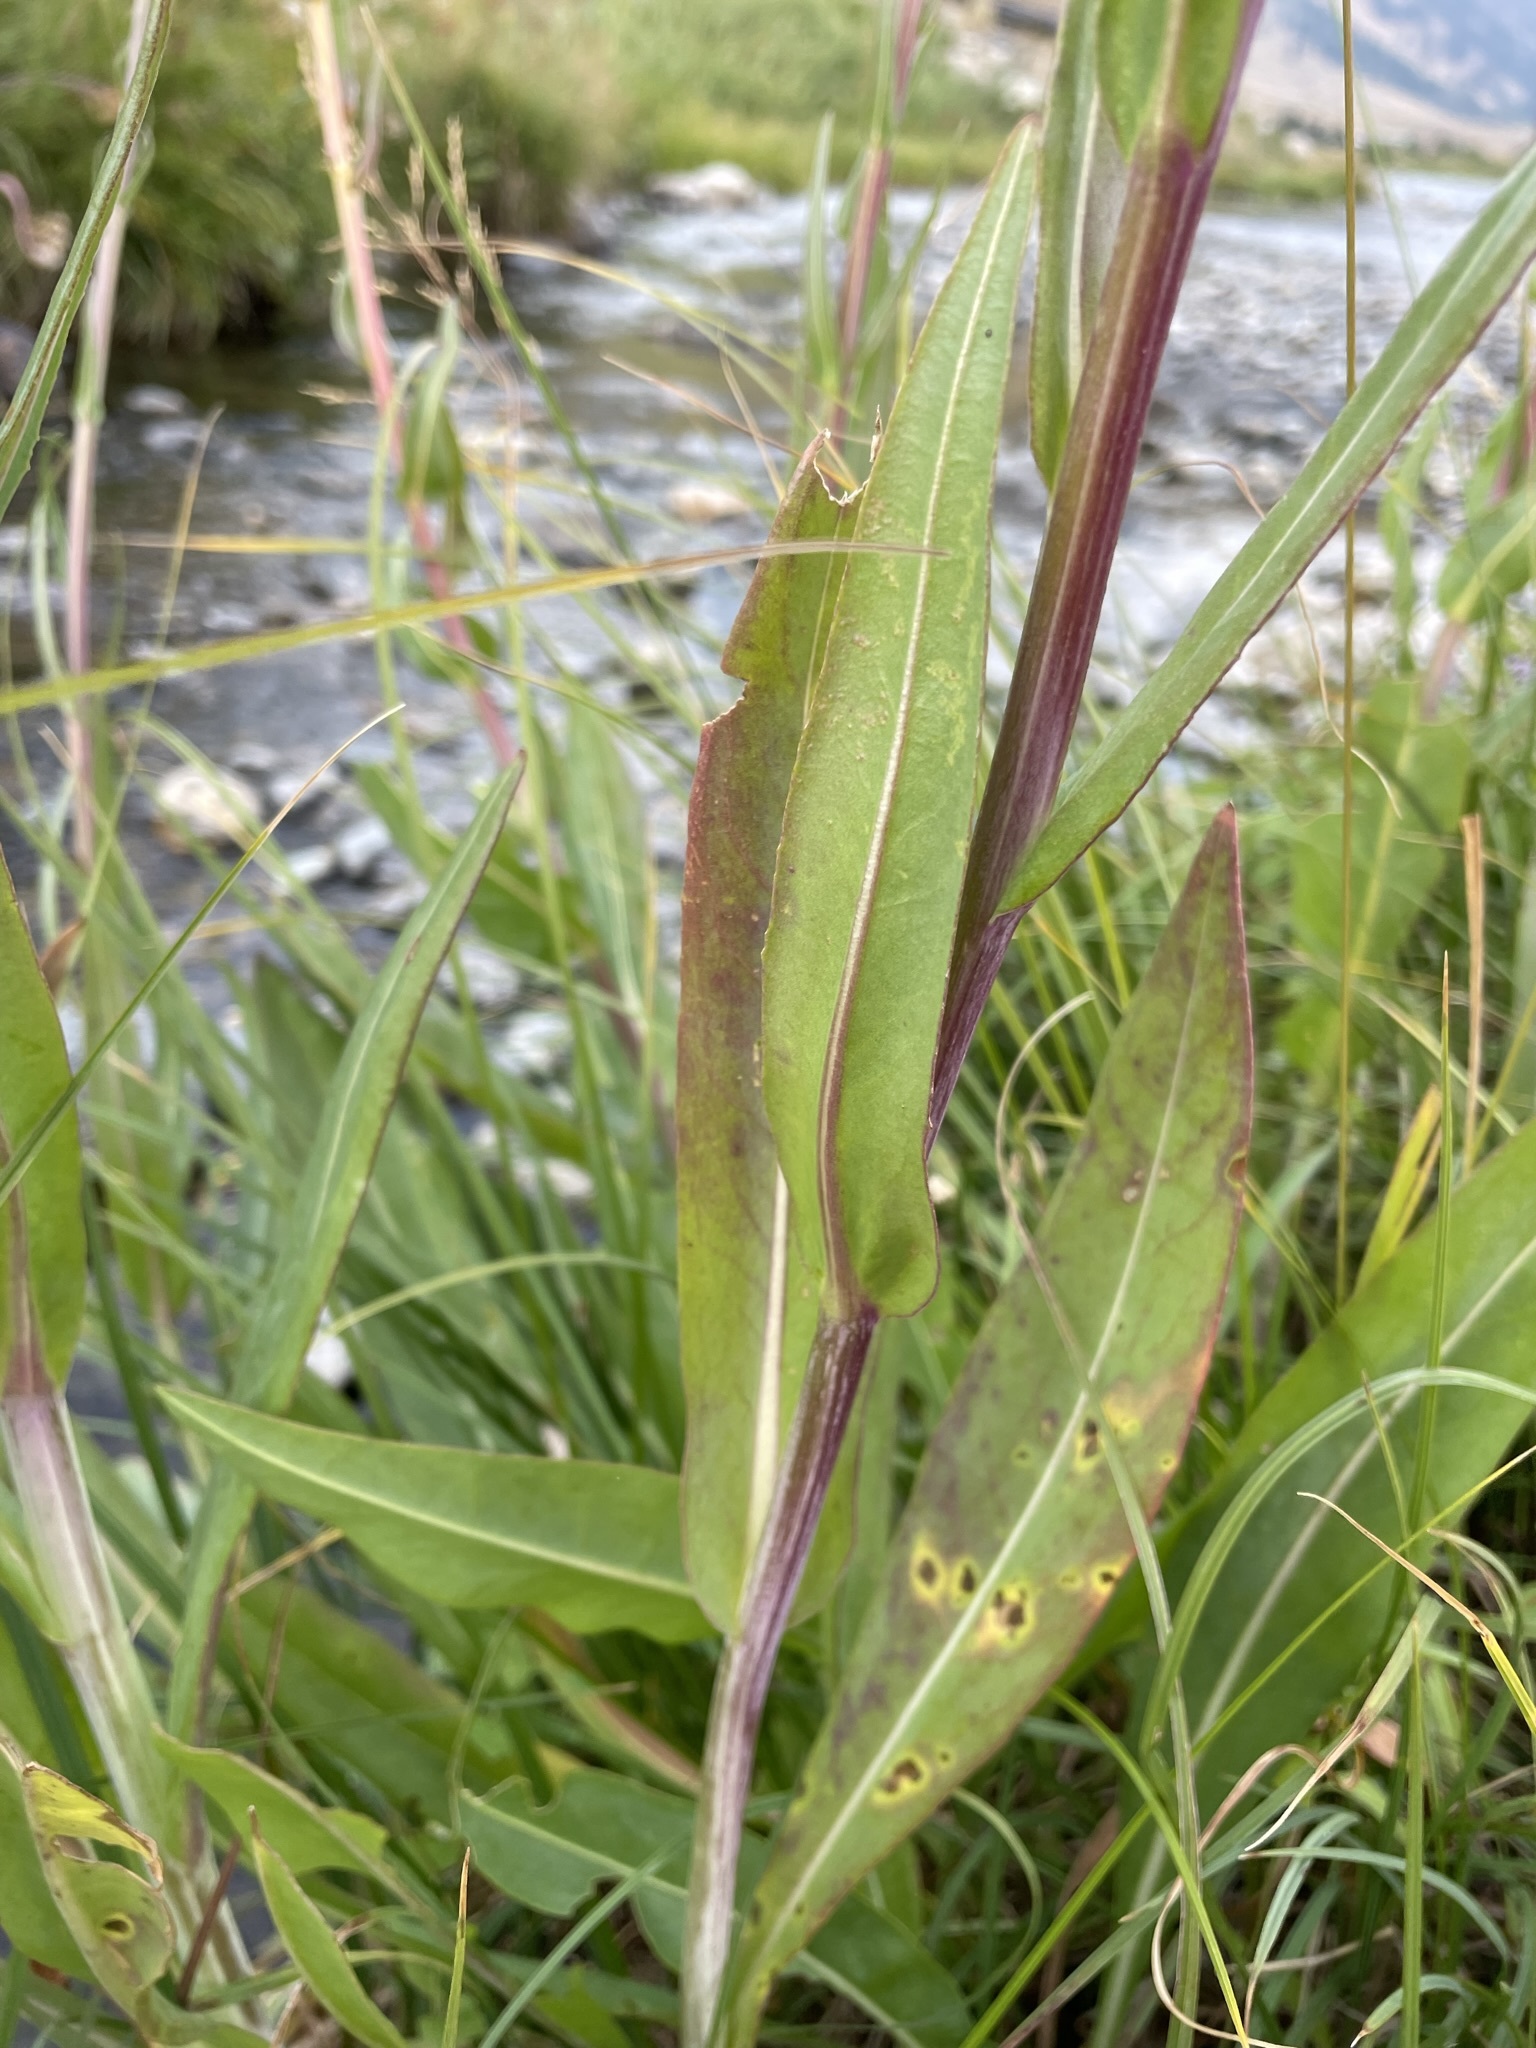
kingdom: Plantae
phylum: Tracheophyta
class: Magnoliopsida
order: Asterales
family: Asteraceae
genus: Senecio
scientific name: Senecio hydrophilus
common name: Water ragwort
